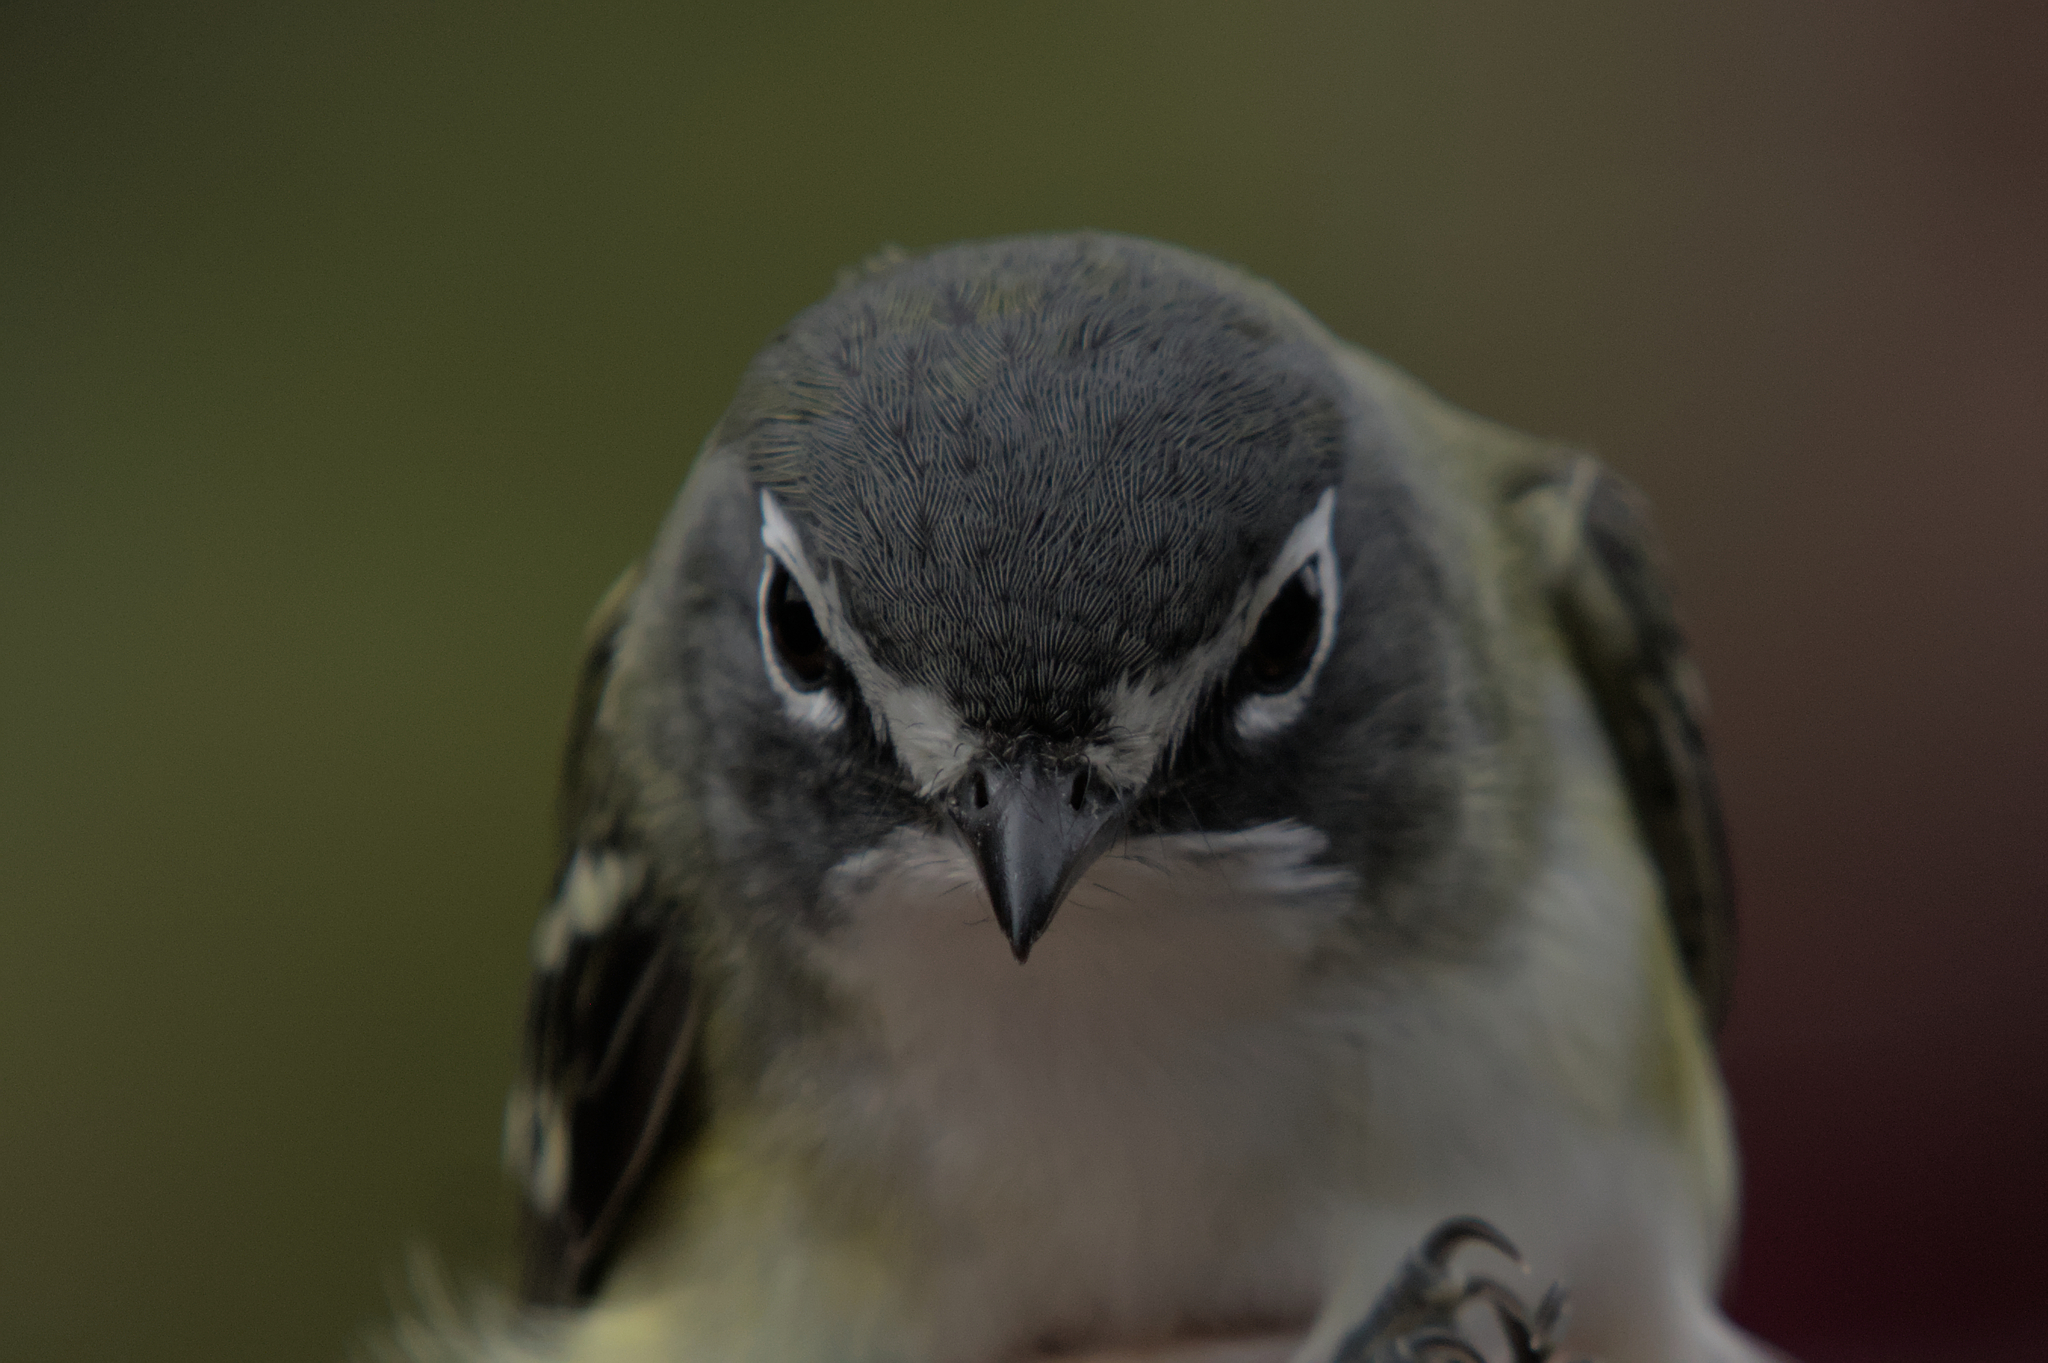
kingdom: Animalia
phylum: Chordata
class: Aves
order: Passeriformes
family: Vireonidae
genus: Vireo
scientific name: Vireo solitarius
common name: Blue-headed vireo
